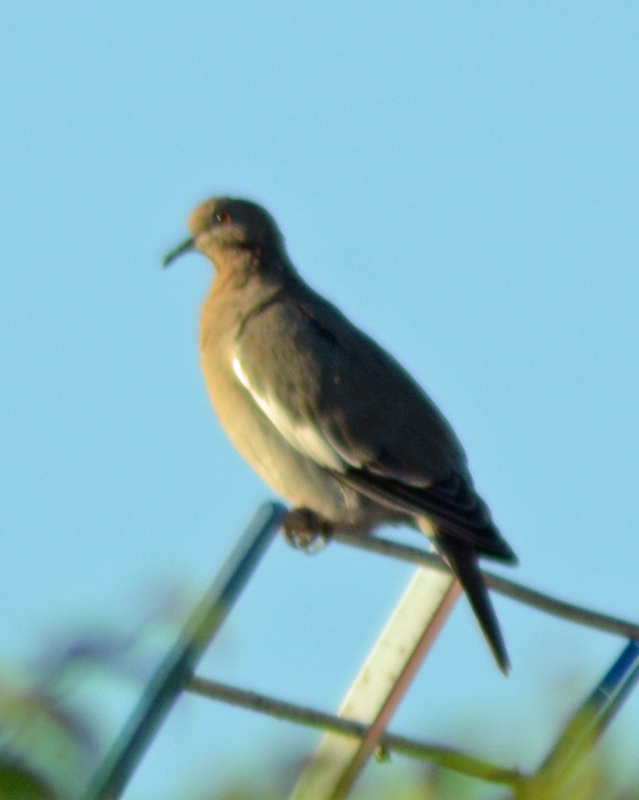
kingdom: Animalia
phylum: Chordata
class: Aves
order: Columbiformes
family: Columbidae
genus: Zenaida
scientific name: Zenaida asiatica
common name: White-winged dove
